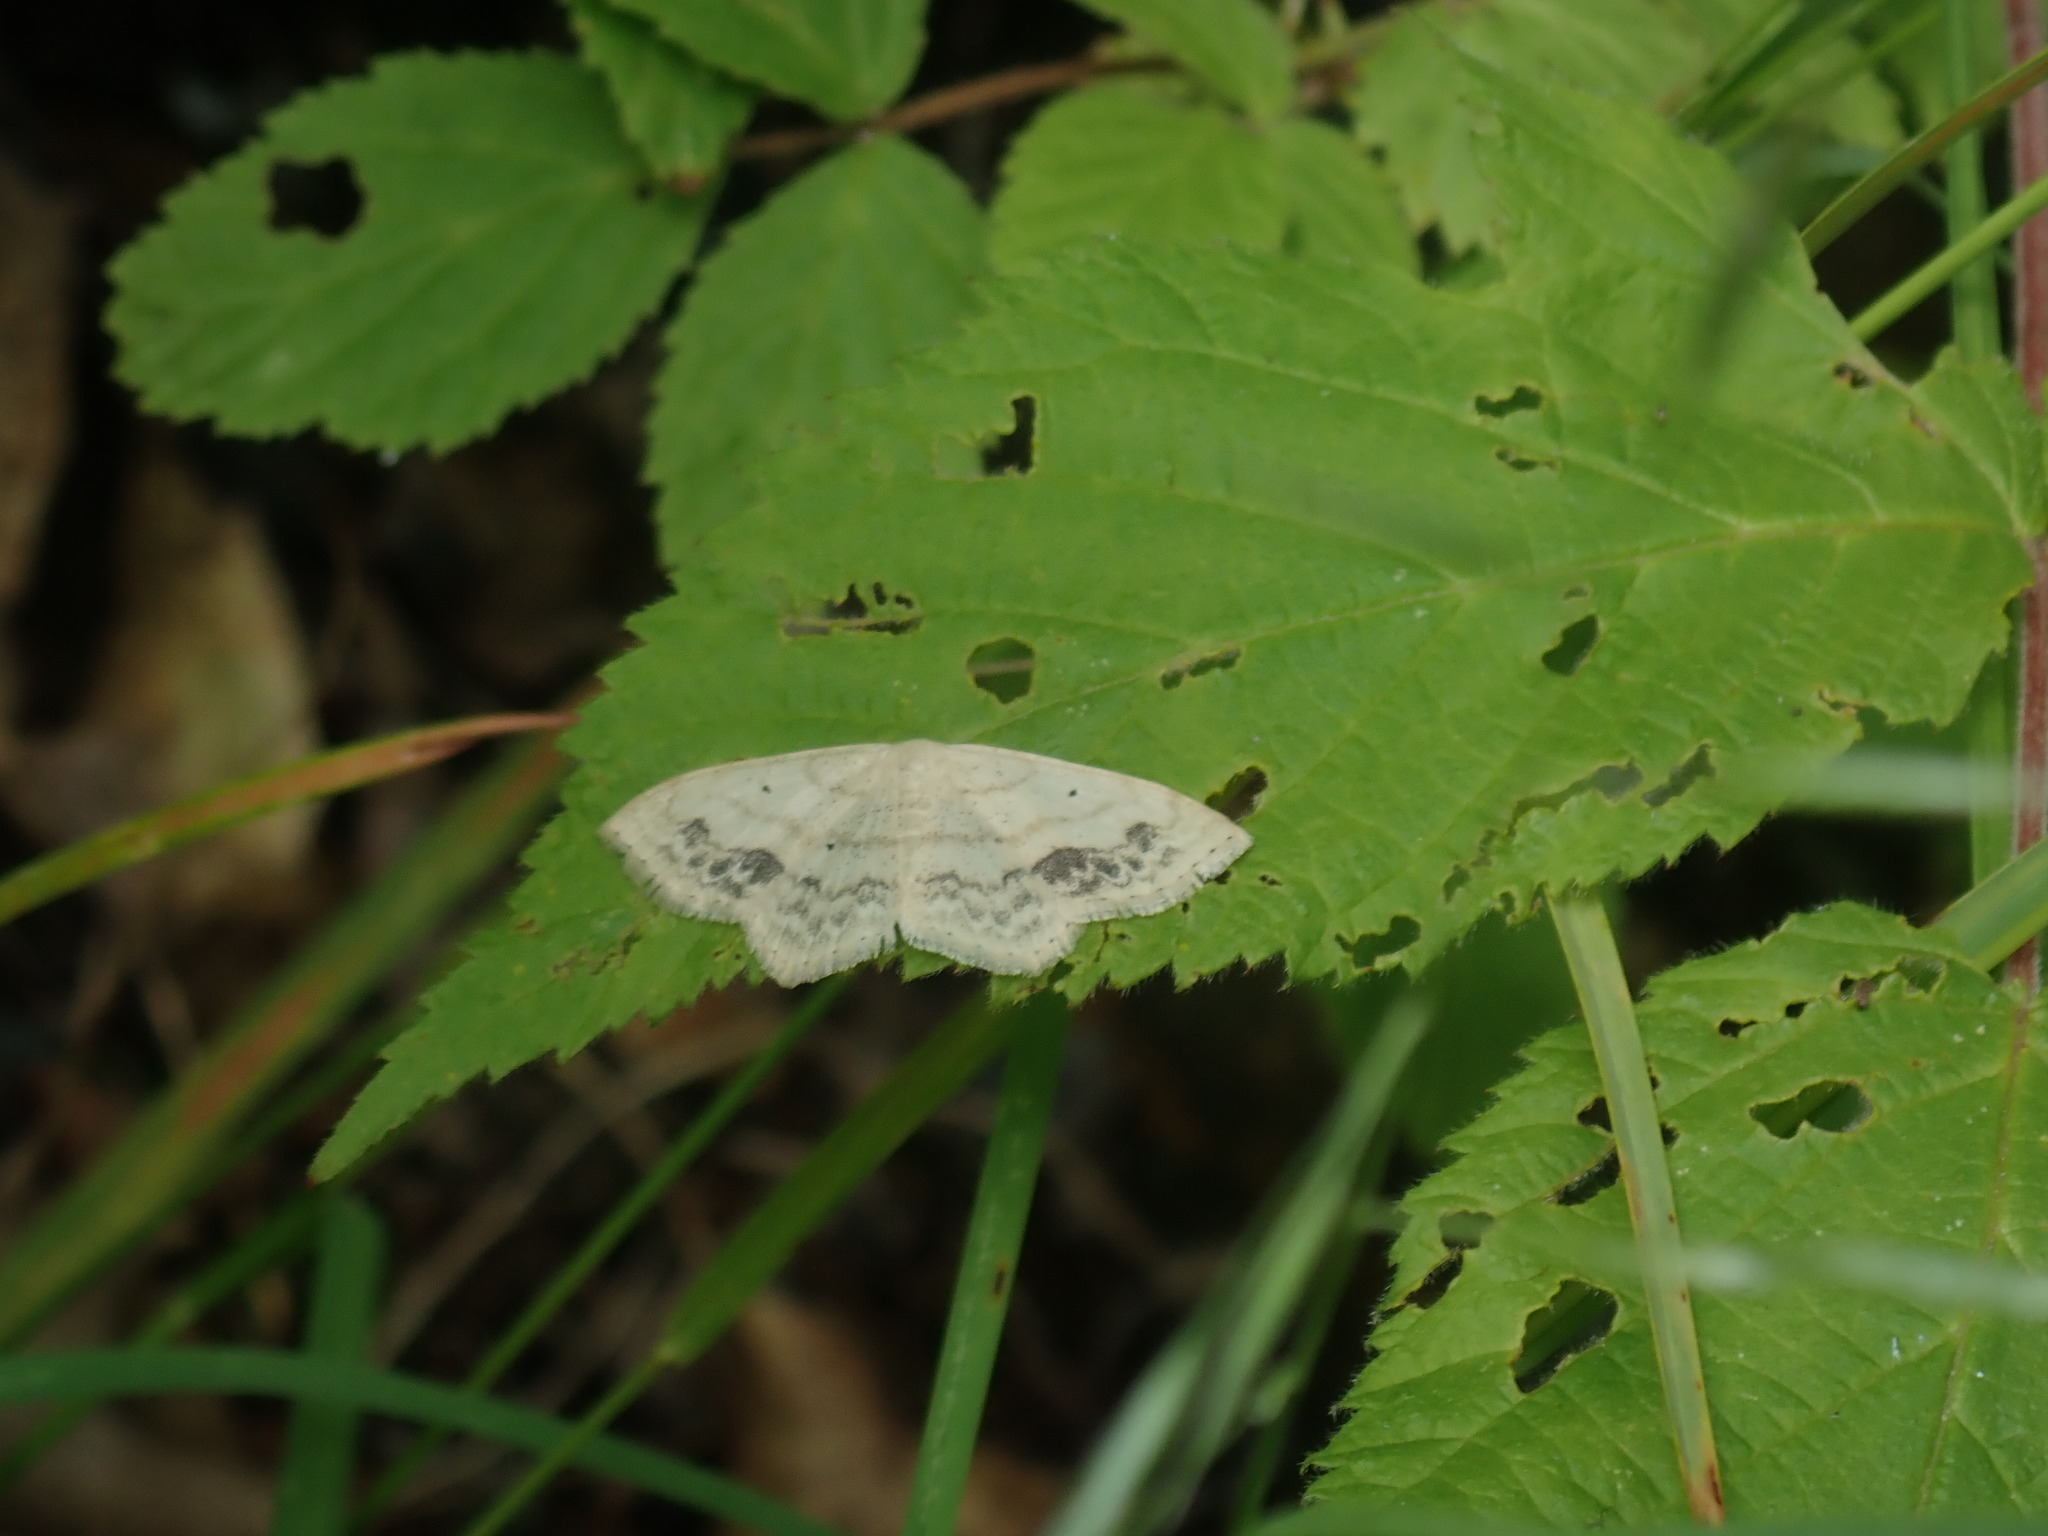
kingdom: Animalia
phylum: Arthropoda
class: Insecta
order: Lepidoptera
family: Geometridae
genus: Scopula
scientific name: Scopula limboundata
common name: Large lace border
